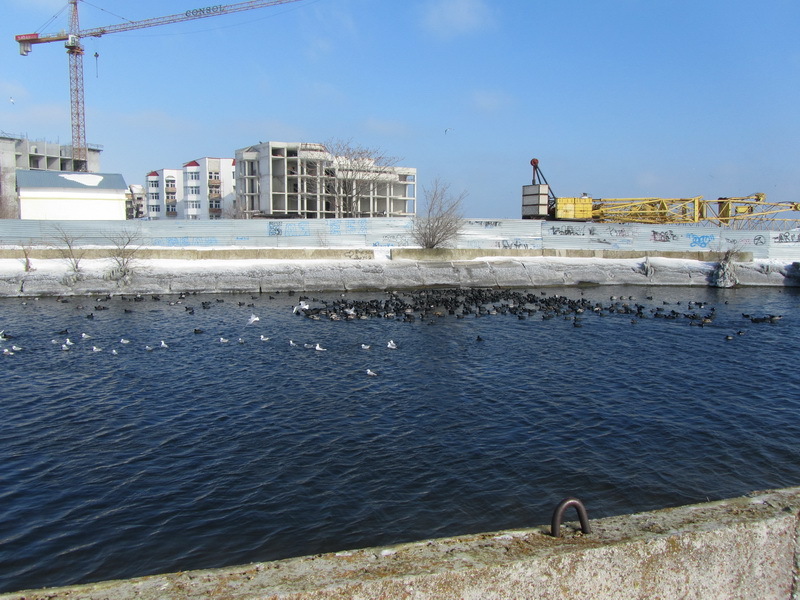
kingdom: Animalia
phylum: Chordata
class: Aves
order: Charadriiformes
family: Laridae
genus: Chroicocephalus
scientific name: Chroicocephalus ridibundus
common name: Black-headed gull
